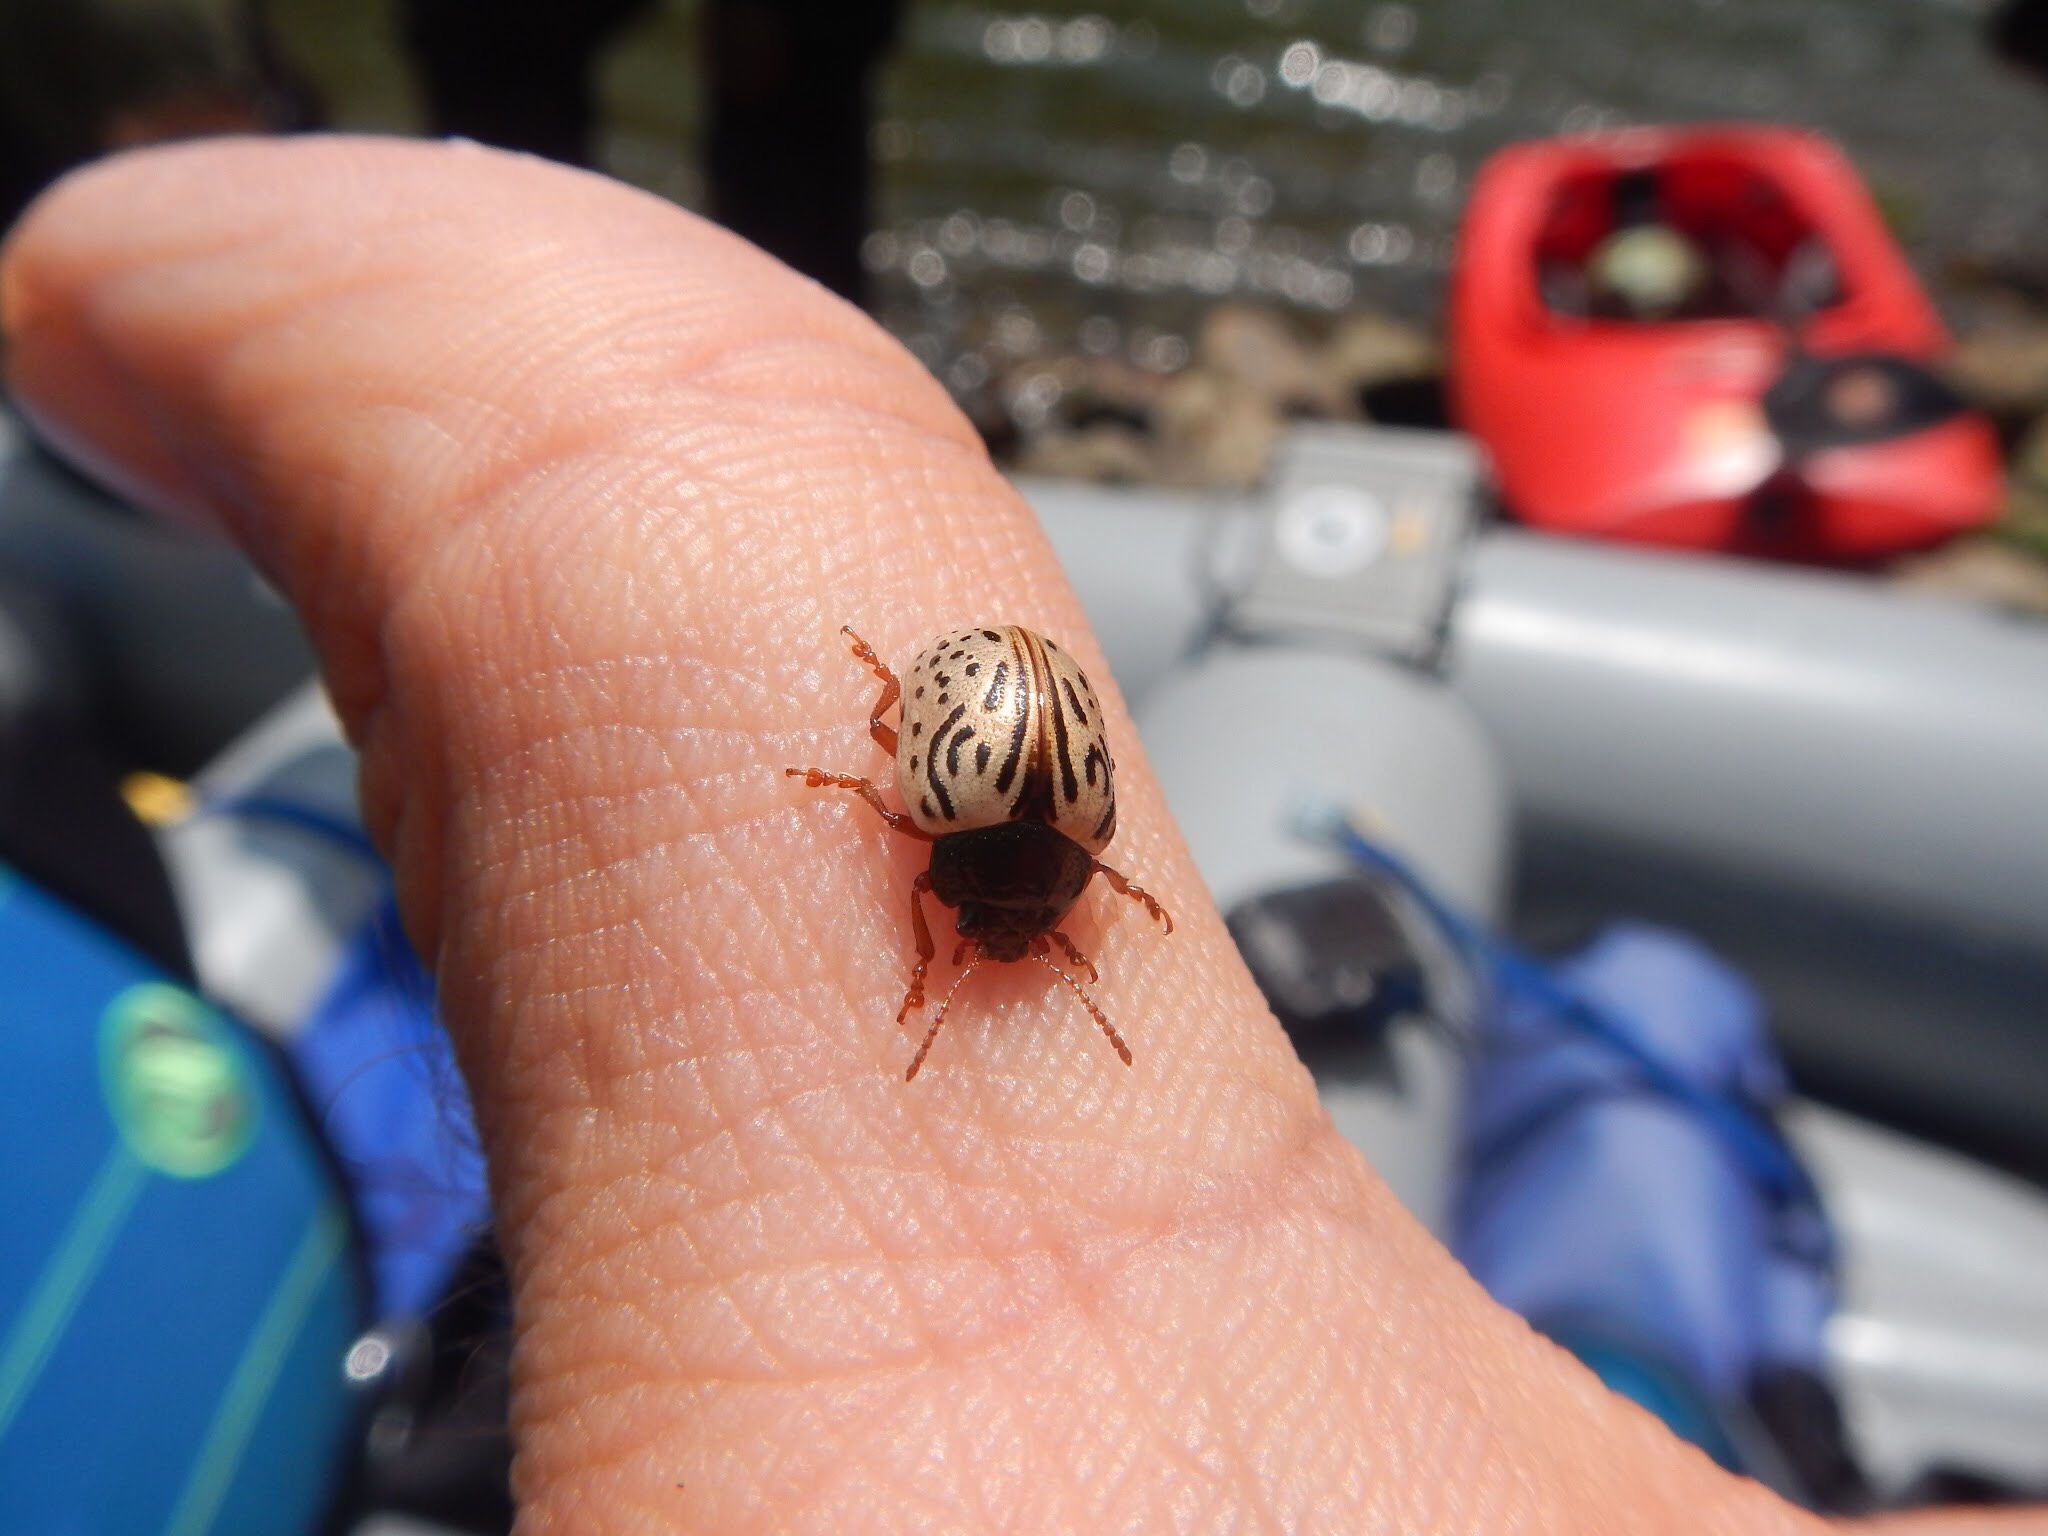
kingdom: Animalia
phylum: Arthropoda
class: Insecta
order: Coleoptera
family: Chrysomelidae
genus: Calligrapha
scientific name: Calligrapha philadelphica
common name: Dogwood leaf beetle
